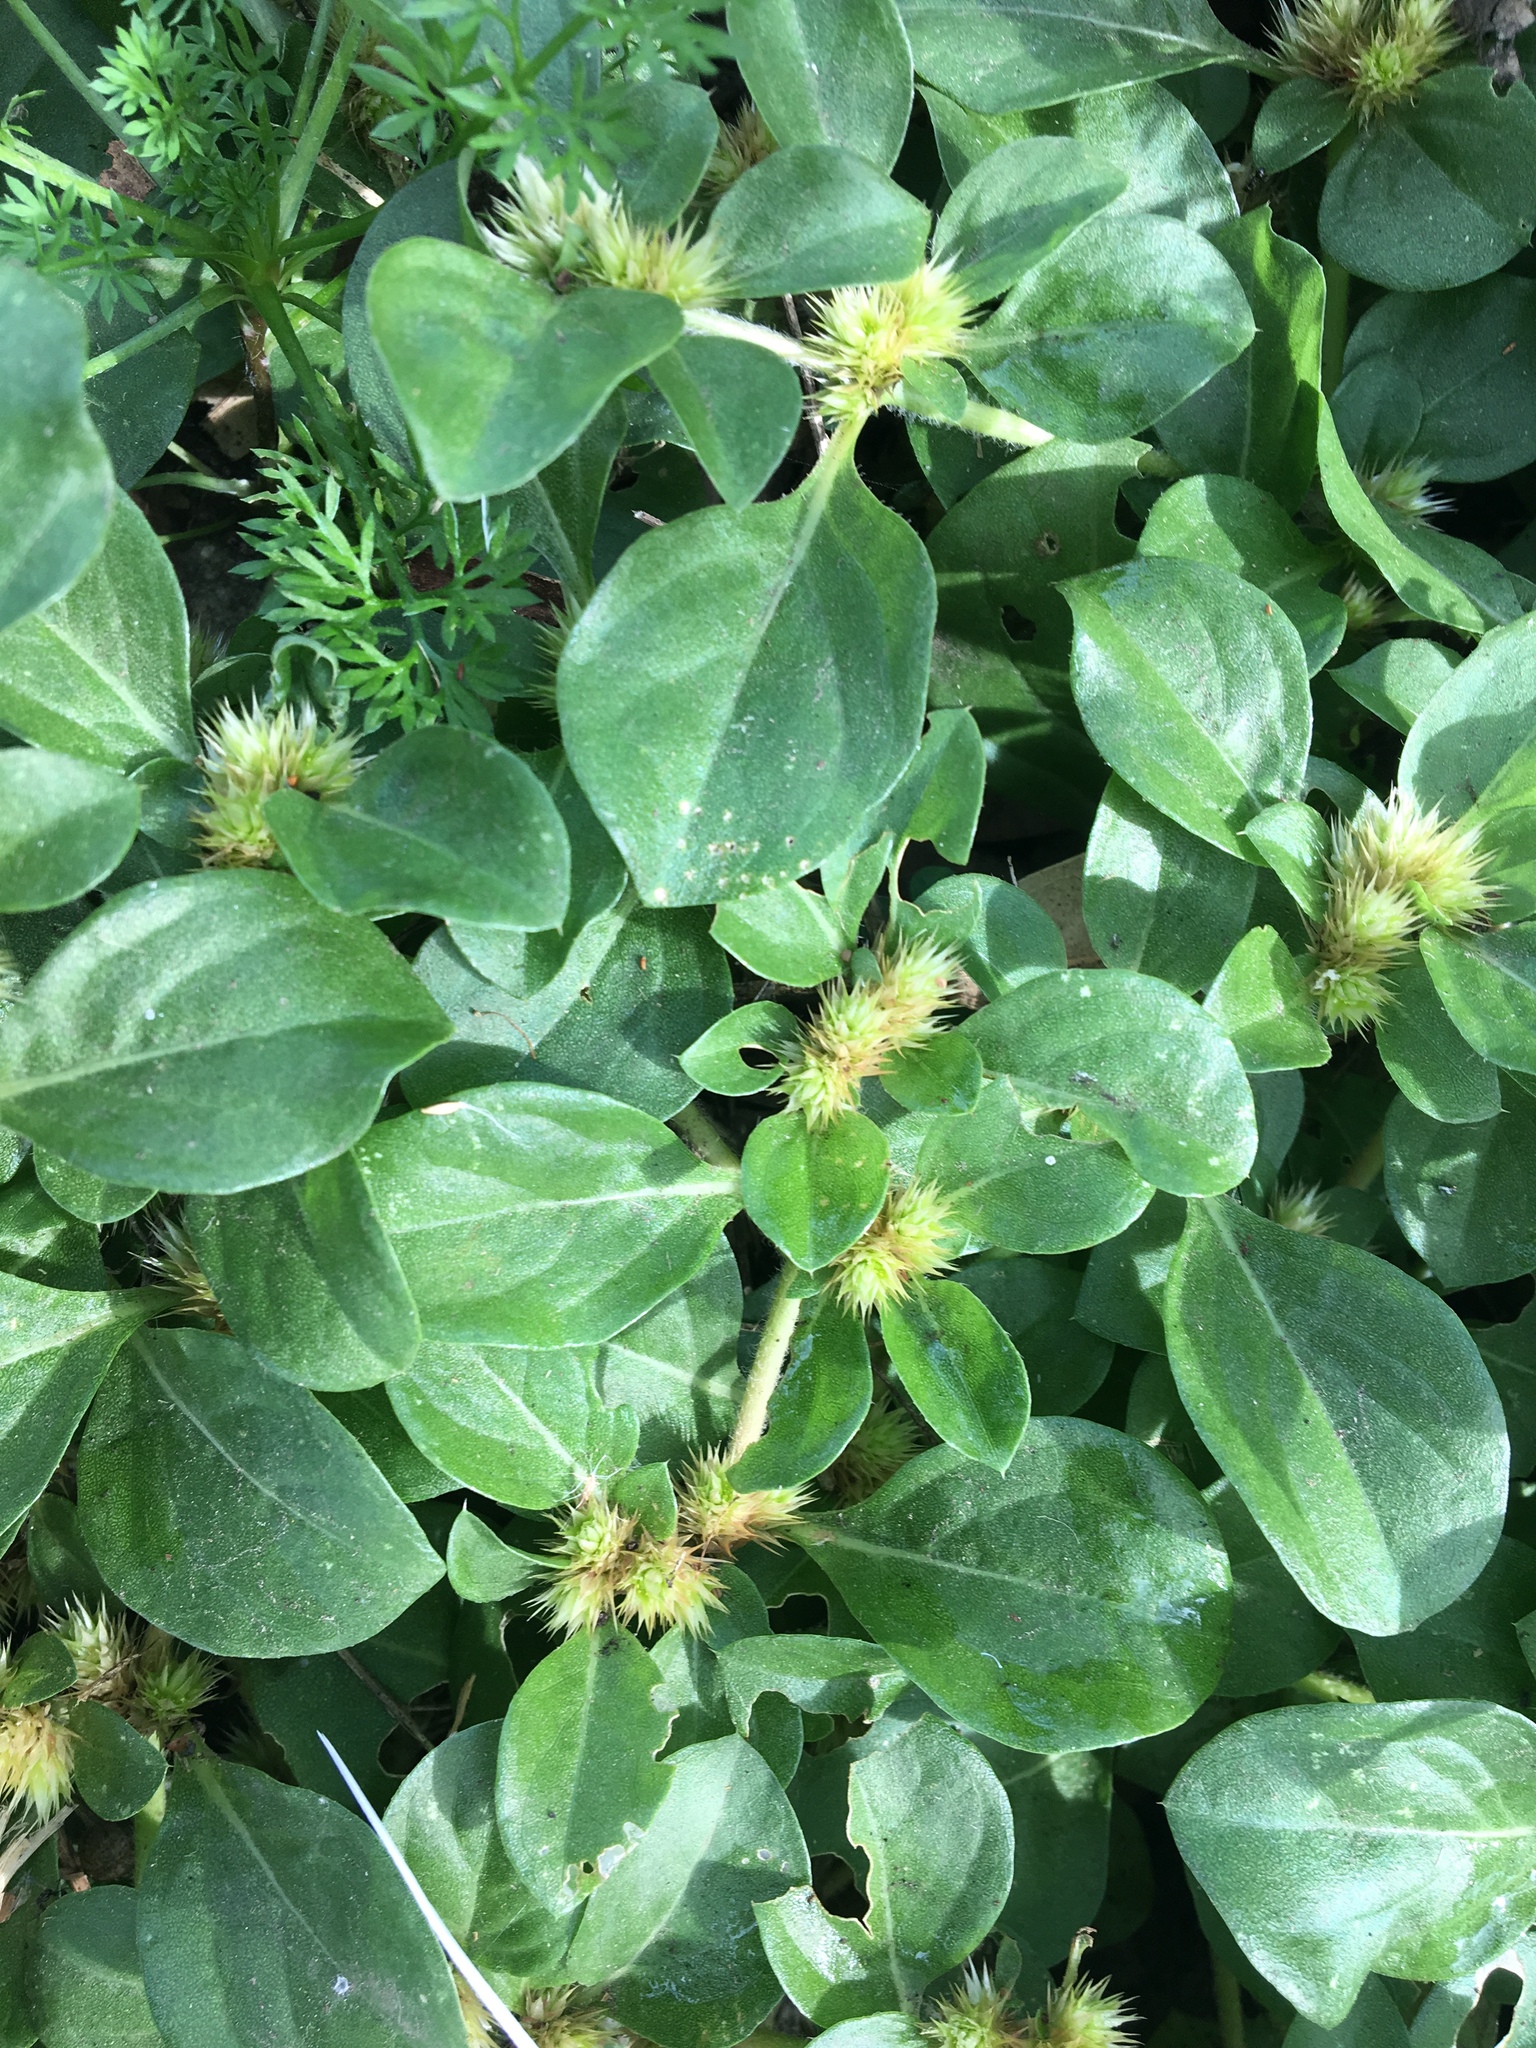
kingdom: Plantae
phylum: Tracheophyta
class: Magnoliopsida
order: Caryophyllales
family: Amaranthaceae
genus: Alternanthera
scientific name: Alternanthera pungens
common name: Khakiweed
